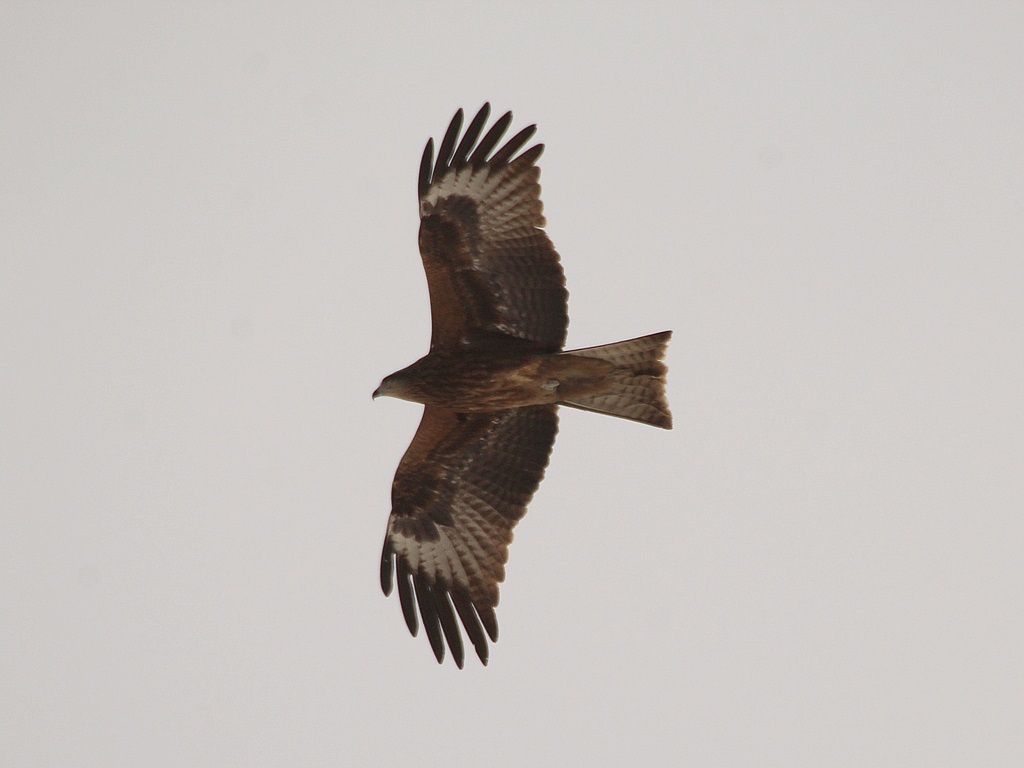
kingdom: Animalia
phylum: Chordata
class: Aves
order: Accipitriformes
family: Accipitridae
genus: Milvus
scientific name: Milvus migrans
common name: Black kite
